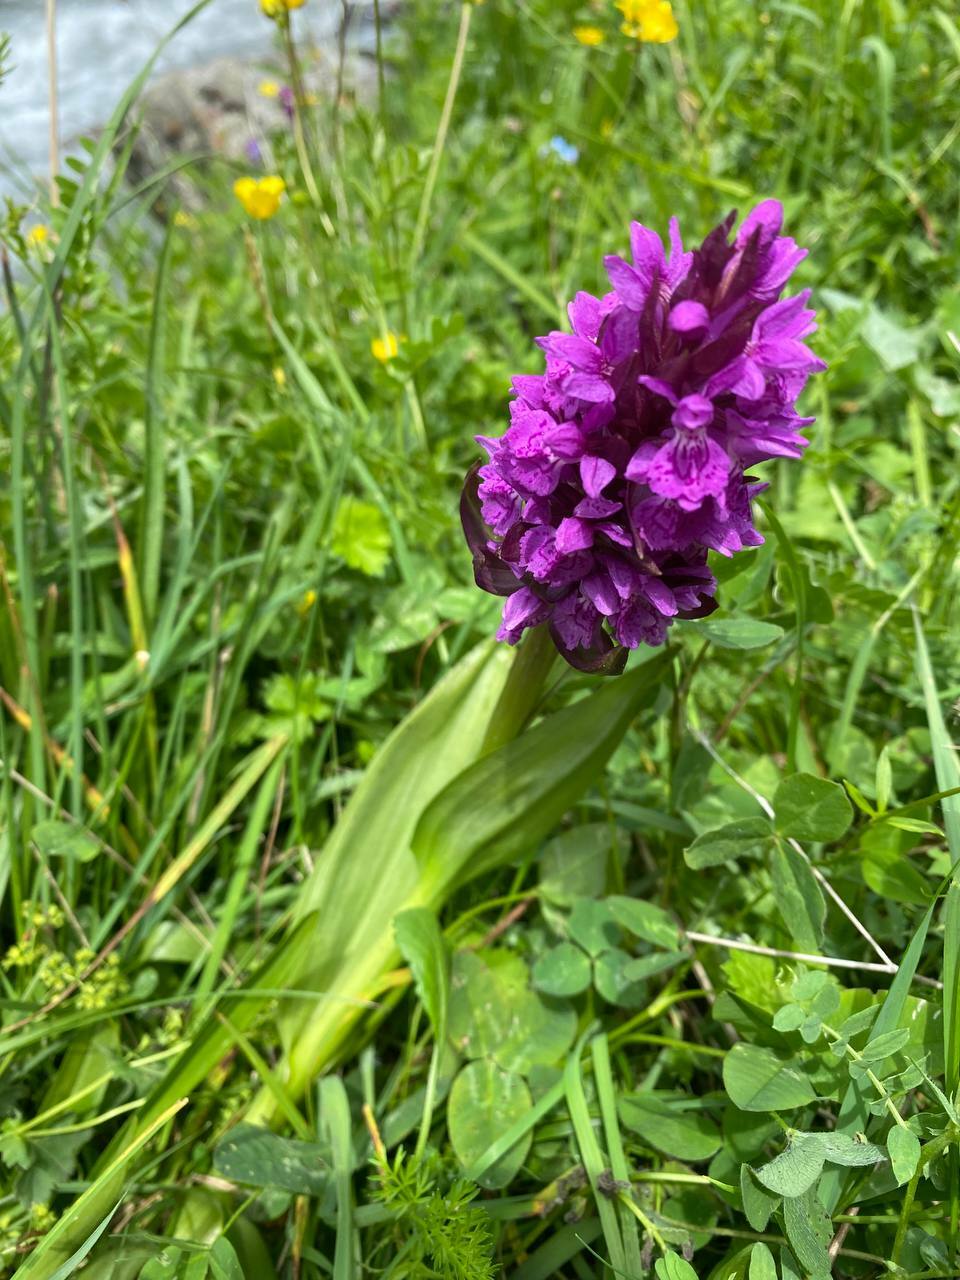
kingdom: Plantae
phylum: Tracheophyta
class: Liliopsida
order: Asparagales
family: Orchidaceae
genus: Dactylorhiza
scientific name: Dactylorhiza salina
